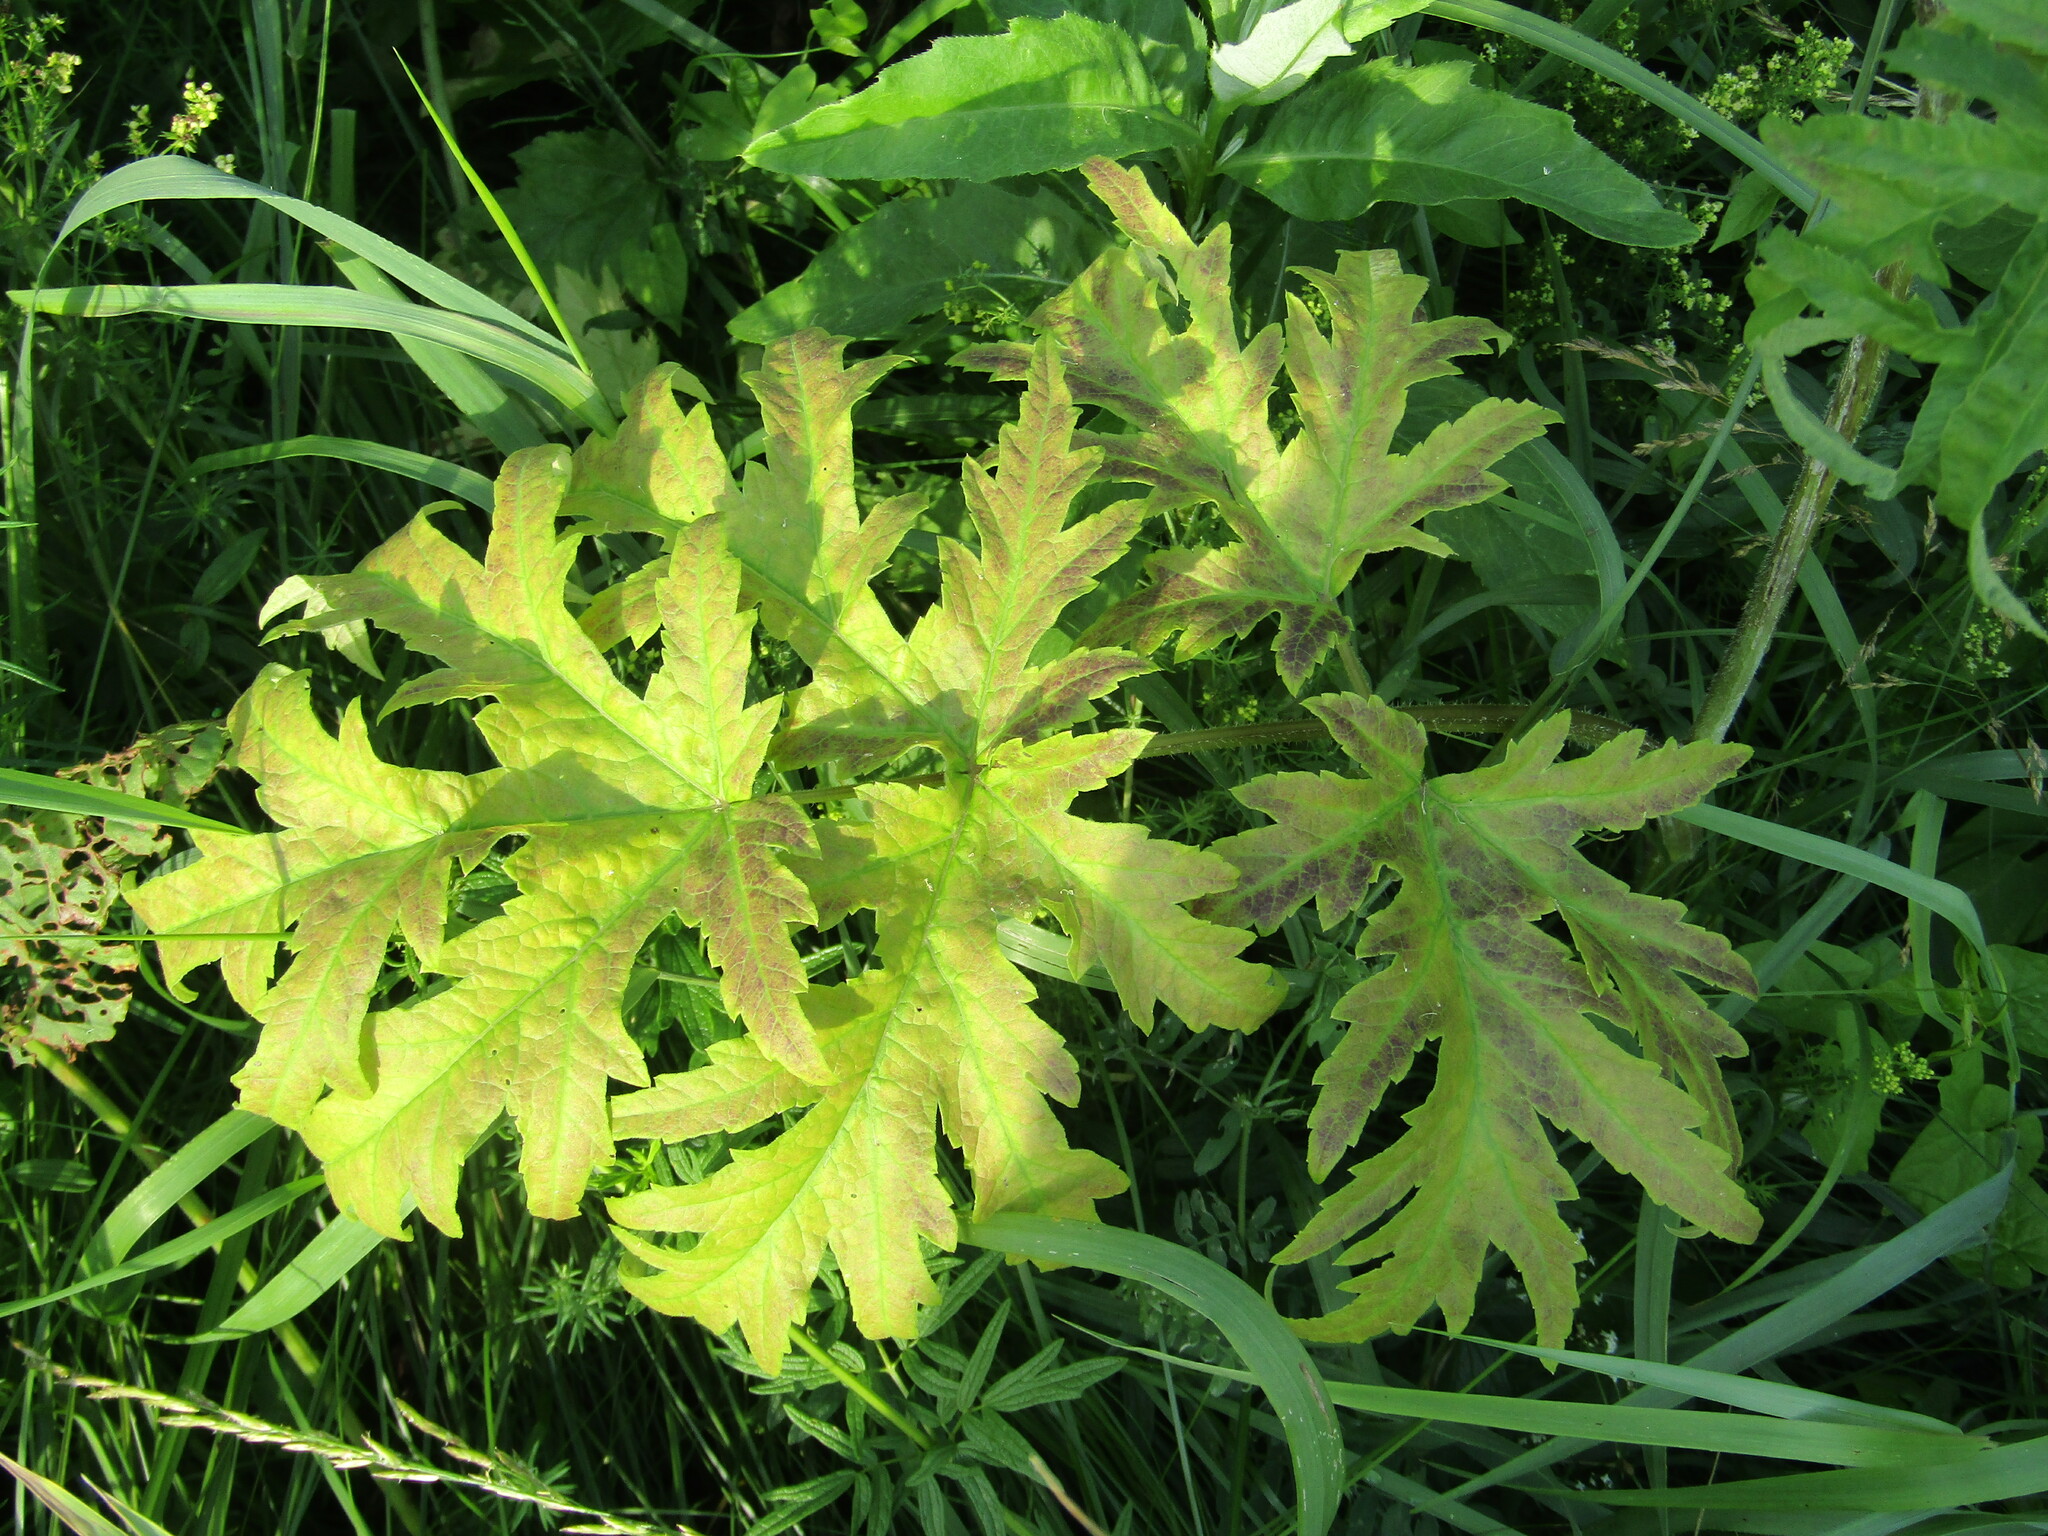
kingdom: Plantae
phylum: Tracheophyta
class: Magnoliopsida
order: Apiales
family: Apiaceae
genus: Heracleum
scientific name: Heracleum sphondylium
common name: Hogweed
